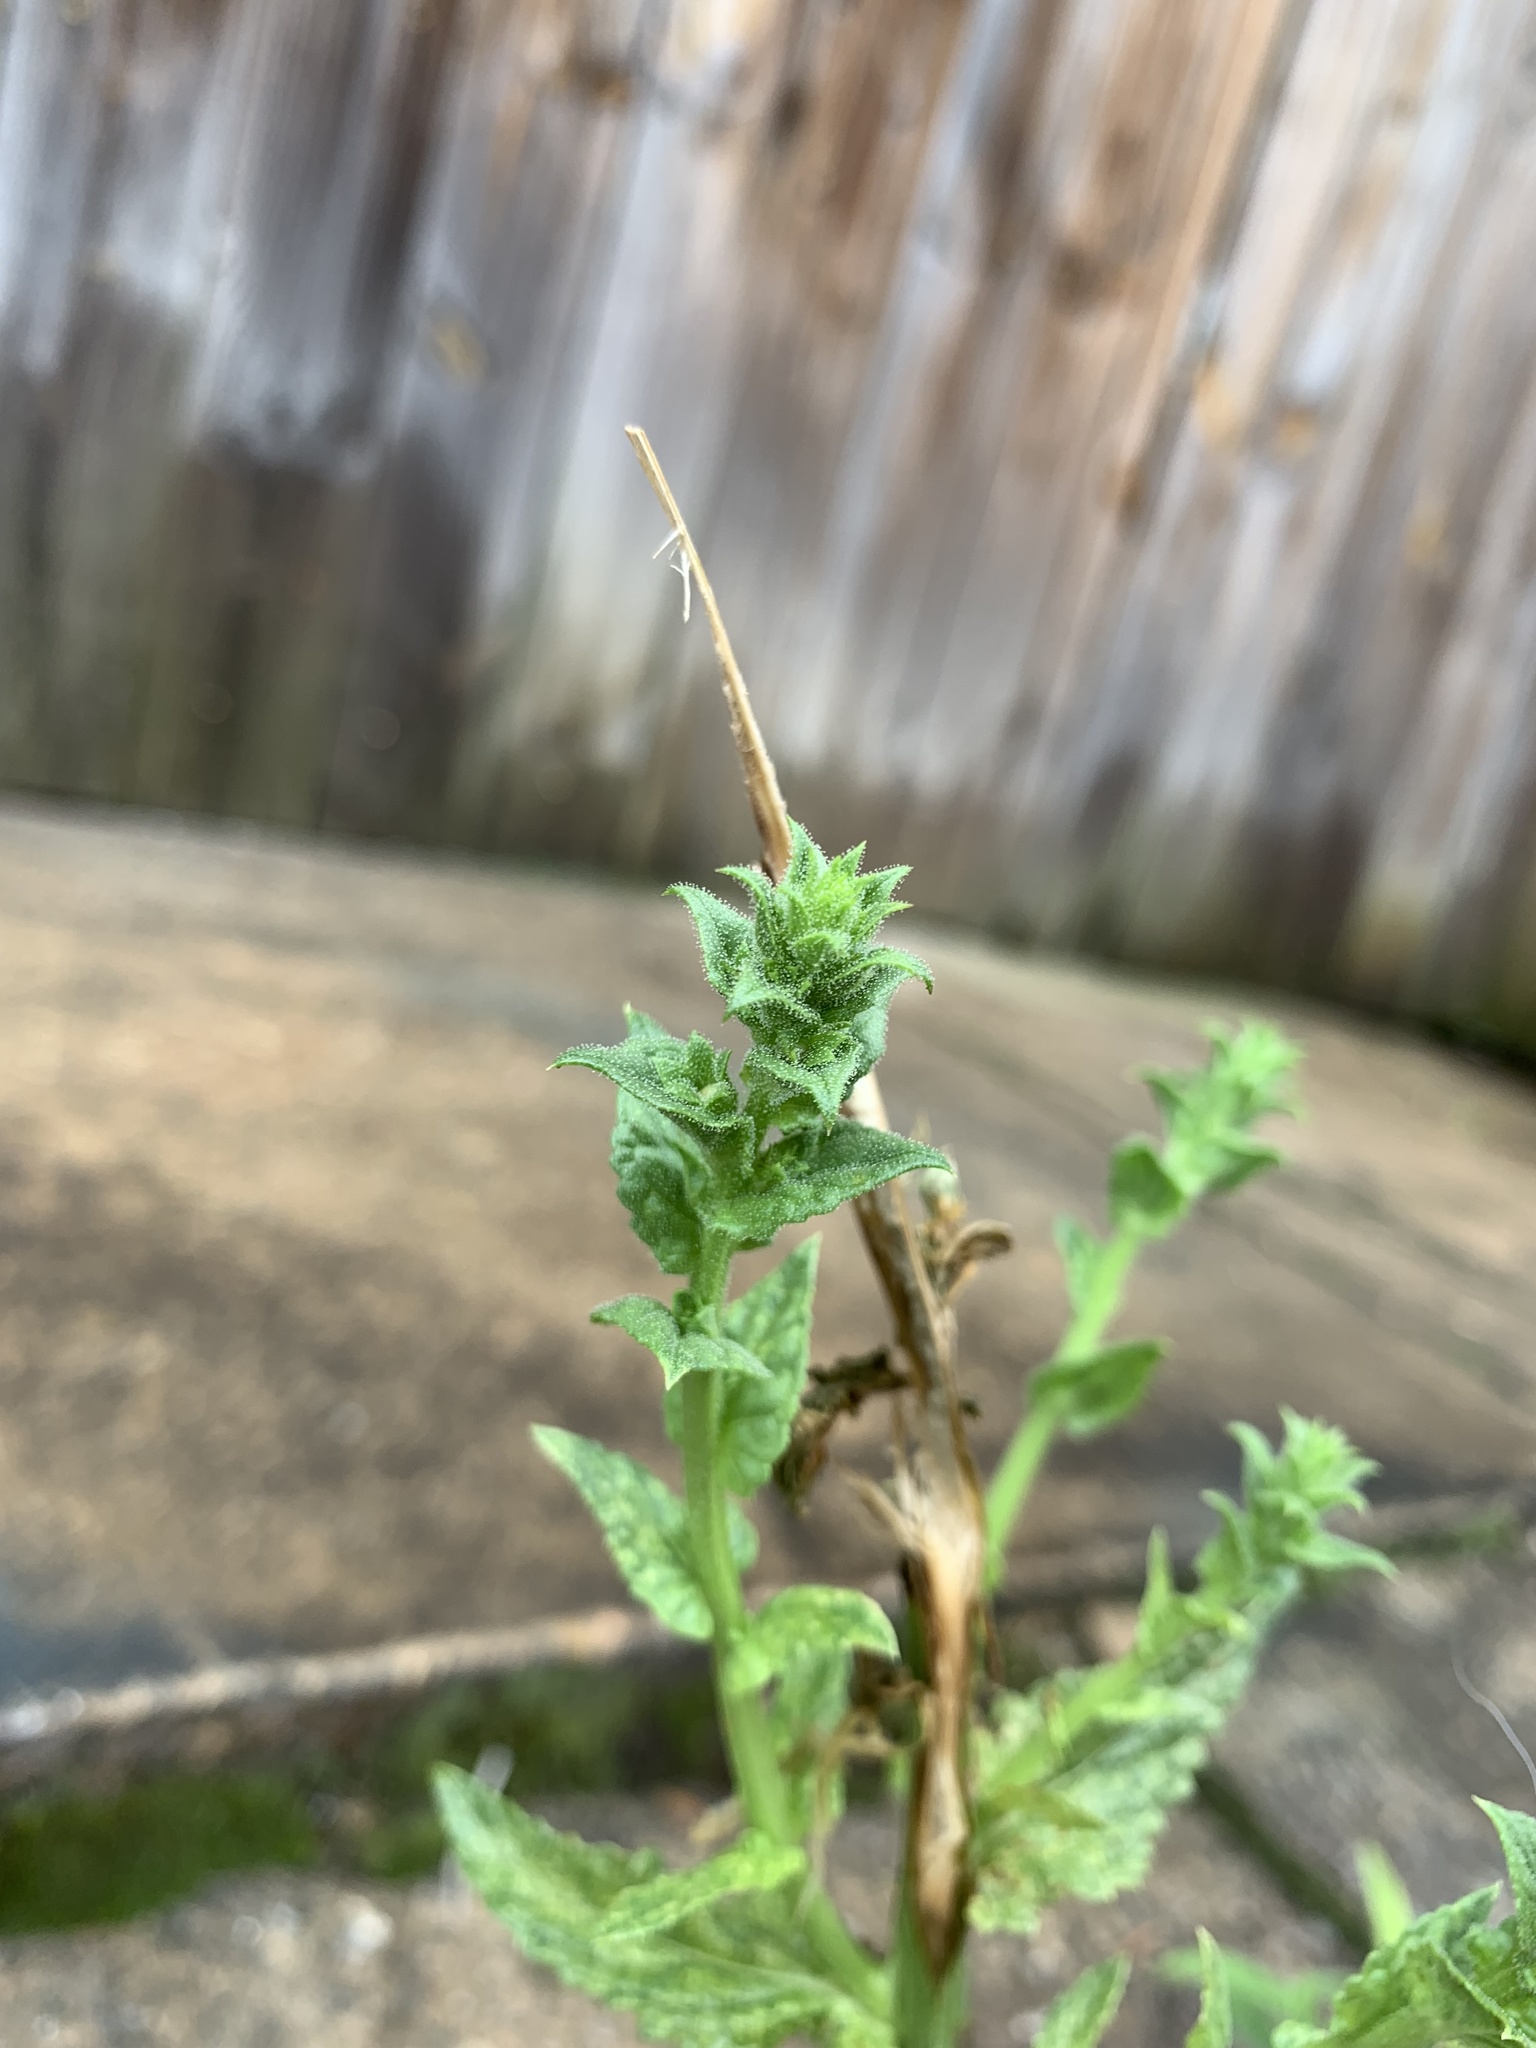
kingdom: Plantae
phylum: Tracheophyta
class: Magnoliopsida
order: Lamiales
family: Scrophulariaceae
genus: Verbascum
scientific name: Verbascum blattaria
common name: Moth mullein
